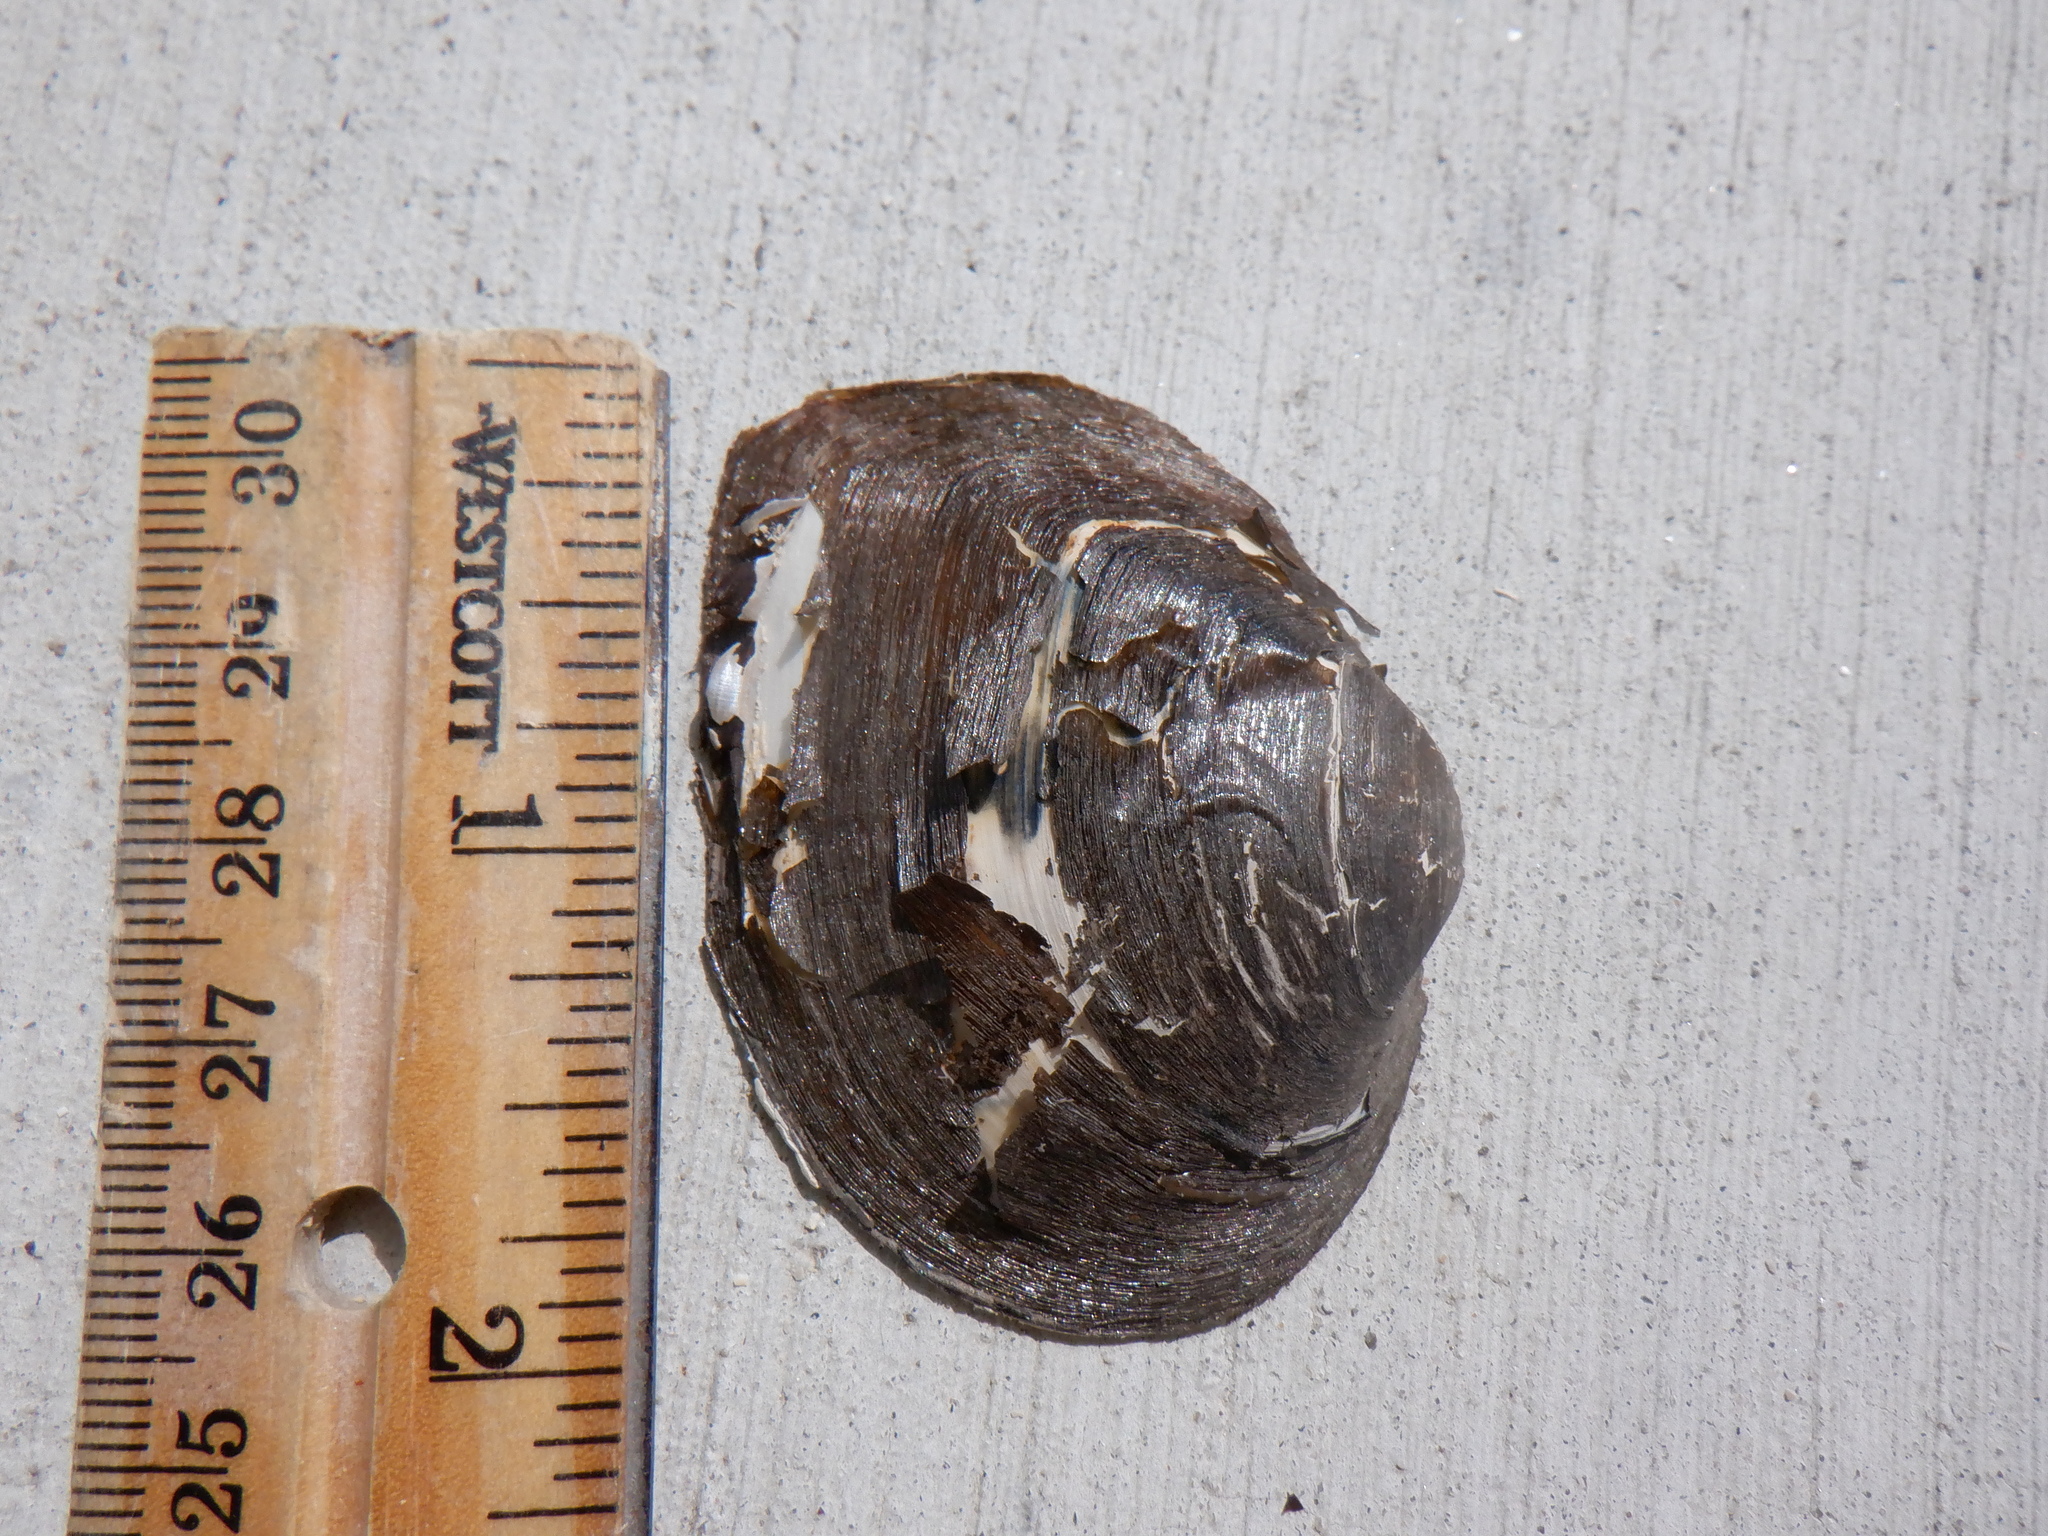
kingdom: Animalia
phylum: Mollusca
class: Bivalvia
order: Unionida
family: Unionidae
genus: Fusconaia
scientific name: Fusconaia flava
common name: Wabash pigtoe
